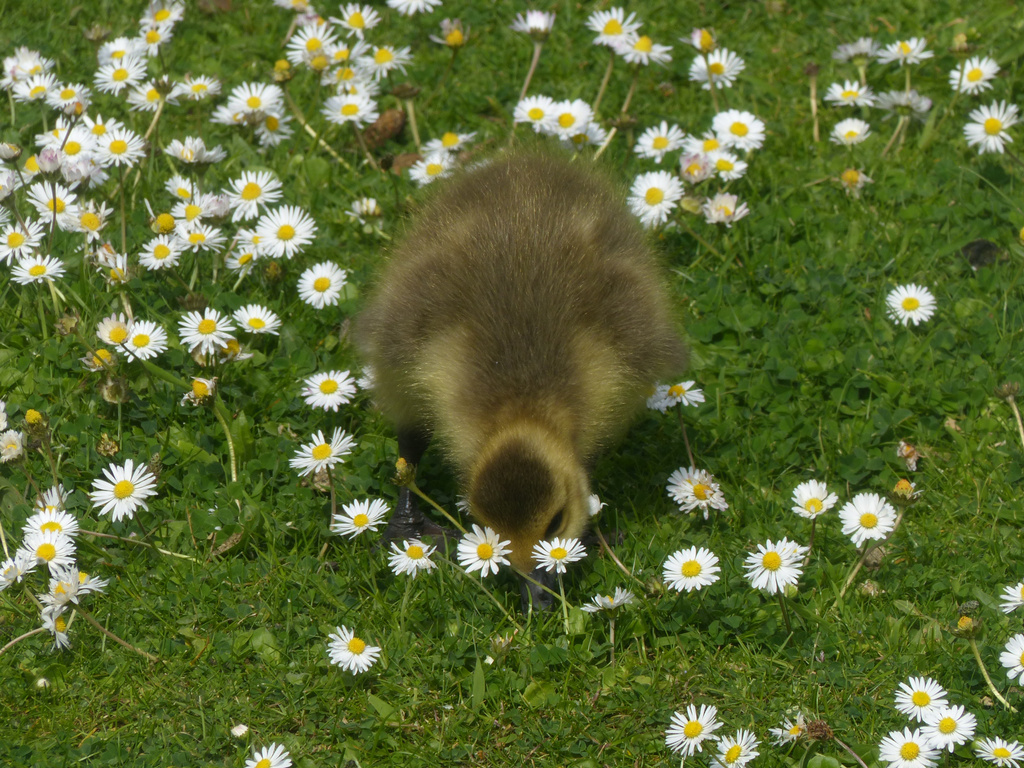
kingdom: Animalia
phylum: Chordata
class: Aves
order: Anseriformes
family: Anatidae
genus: Branta
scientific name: Branta canadensis
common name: Canada goose
